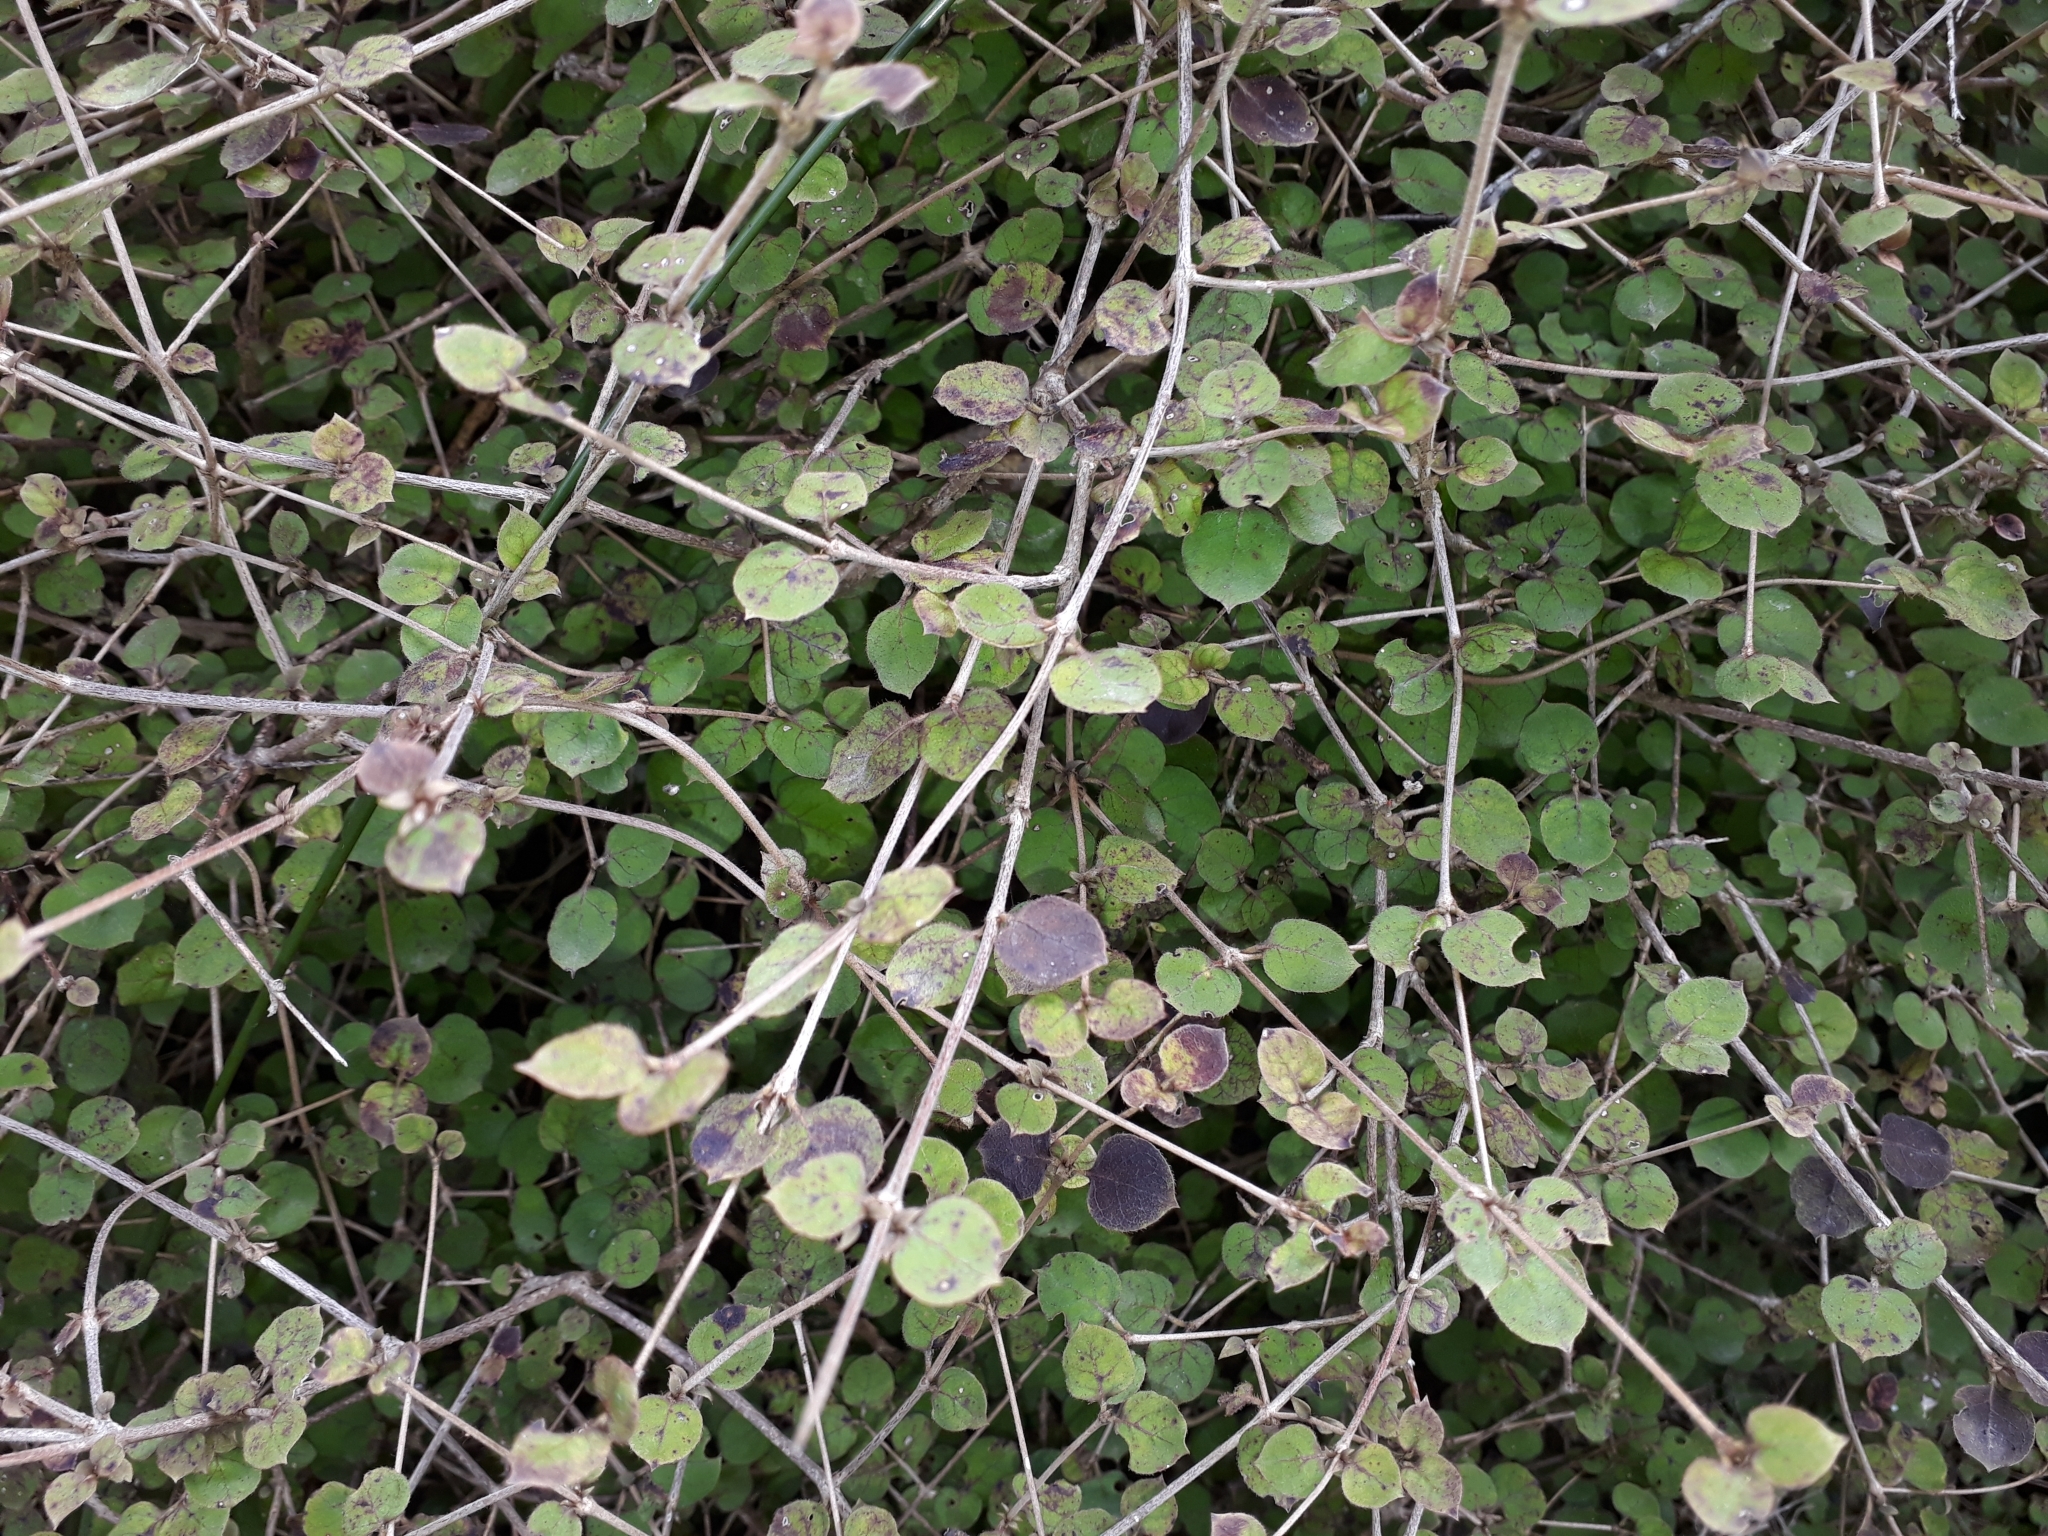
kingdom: Plantae
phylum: Tracheophyta
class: Magnoliopsida
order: Gentianales
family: Rubiaceae
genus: Coprosma
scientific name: Coprosma rotundifolia
